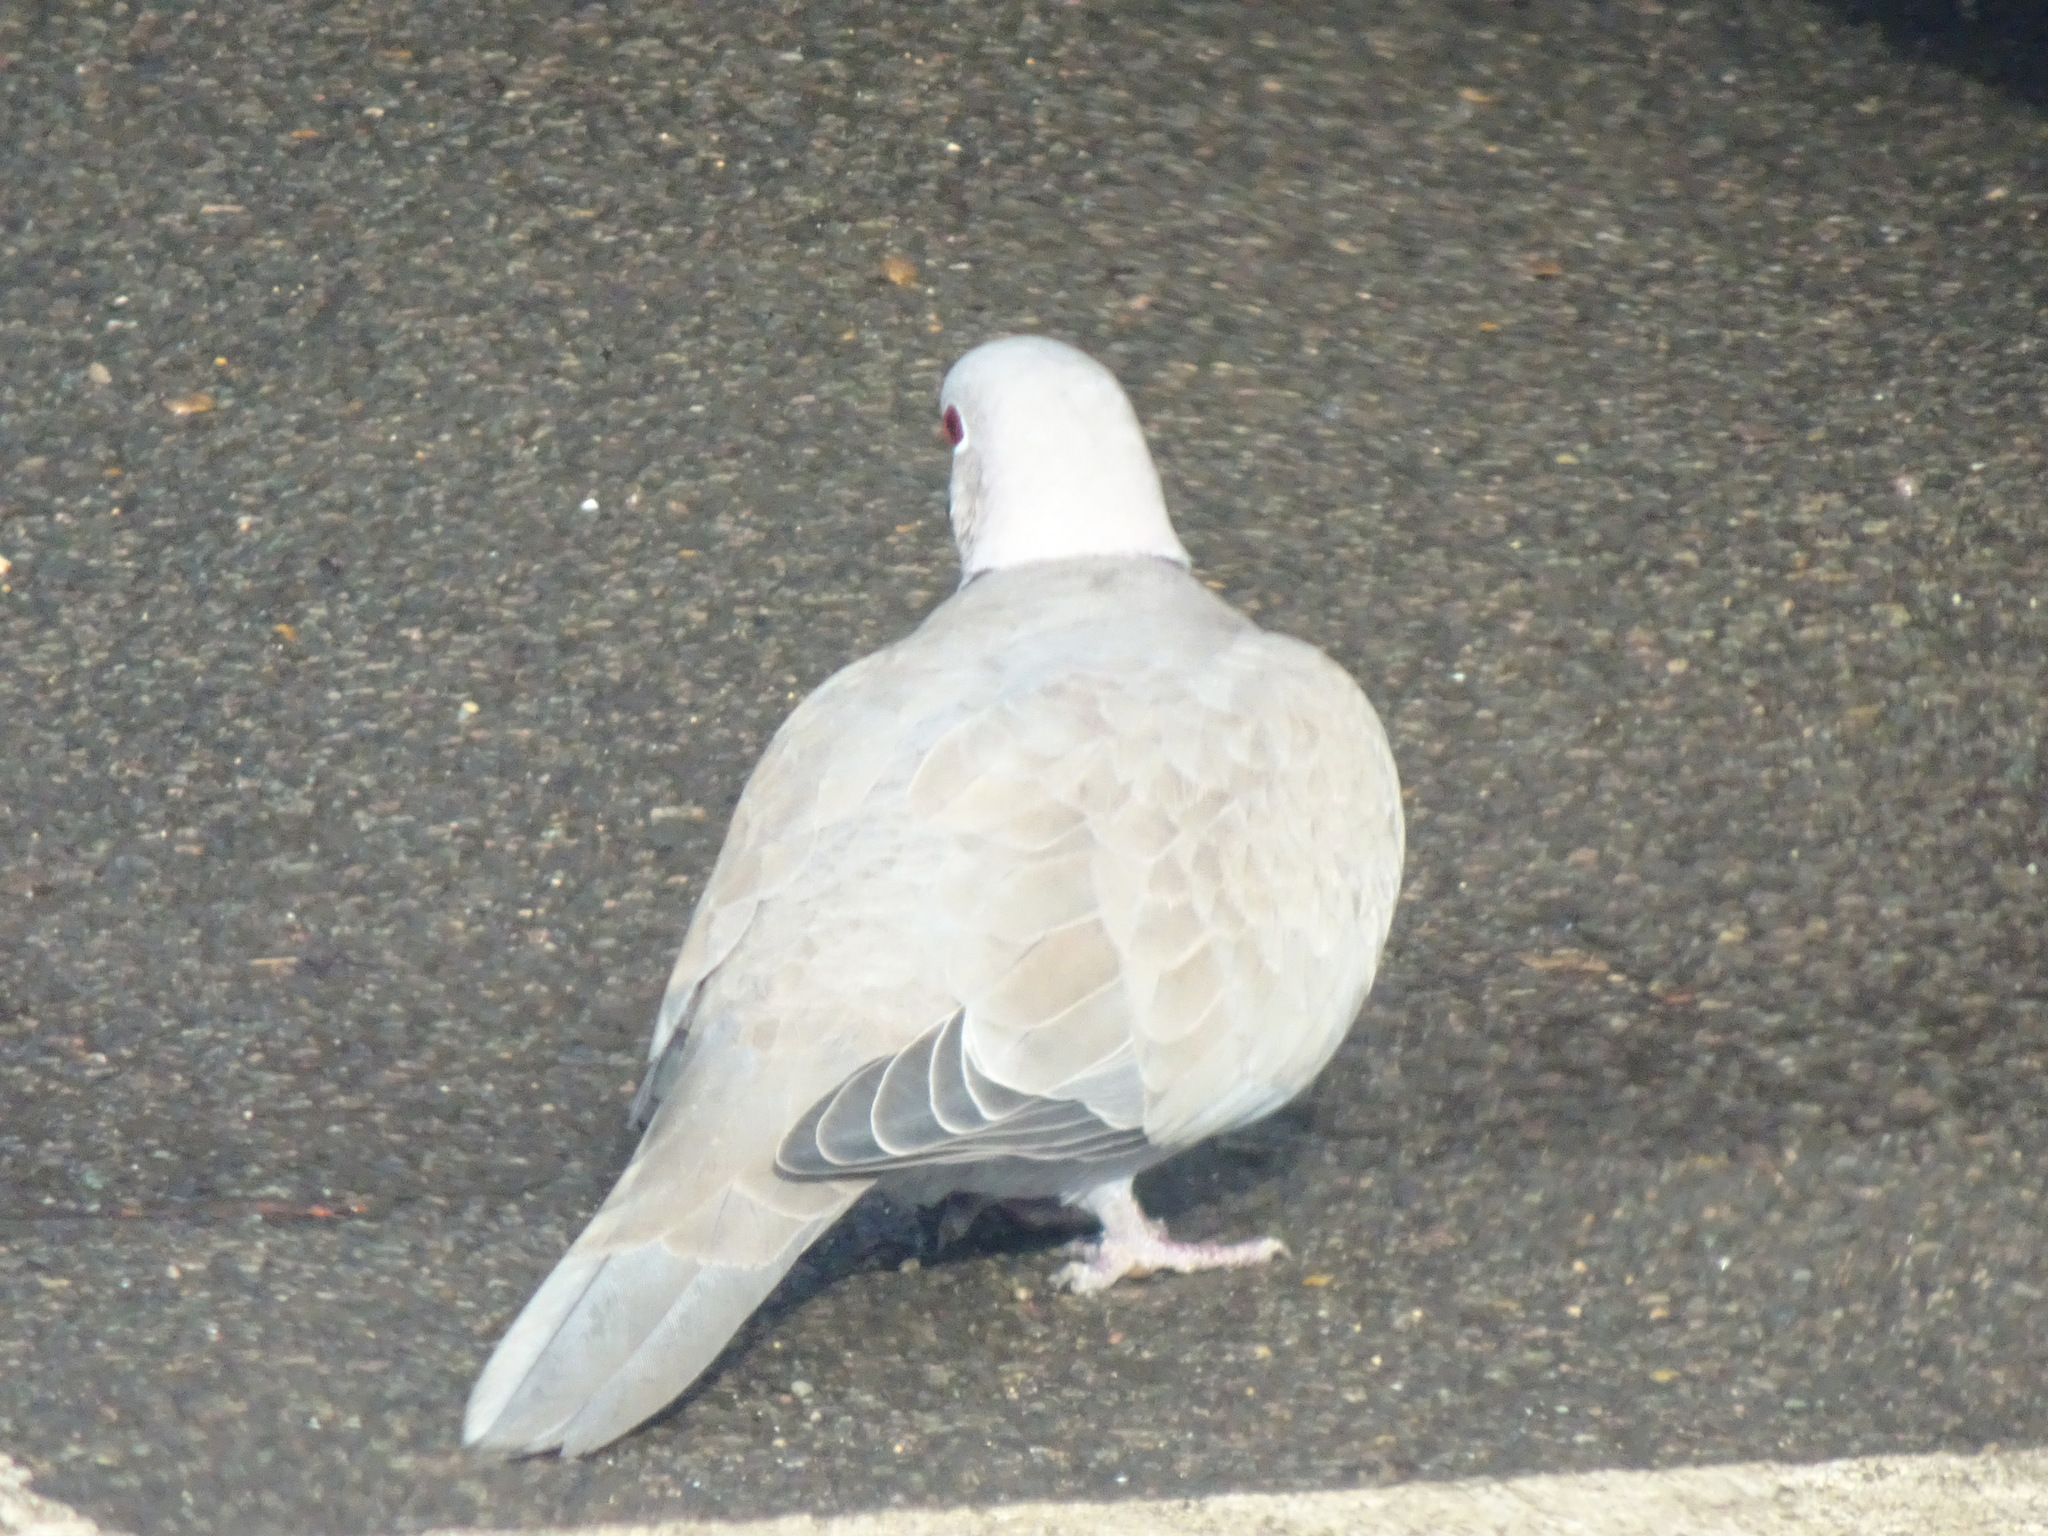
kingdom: Animalia
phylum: Chordata
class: Aves
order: Columbiformes
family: Columbidae
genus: Streptopelia
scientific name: Streptopelia decaocto
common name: Eurasian collared dove
